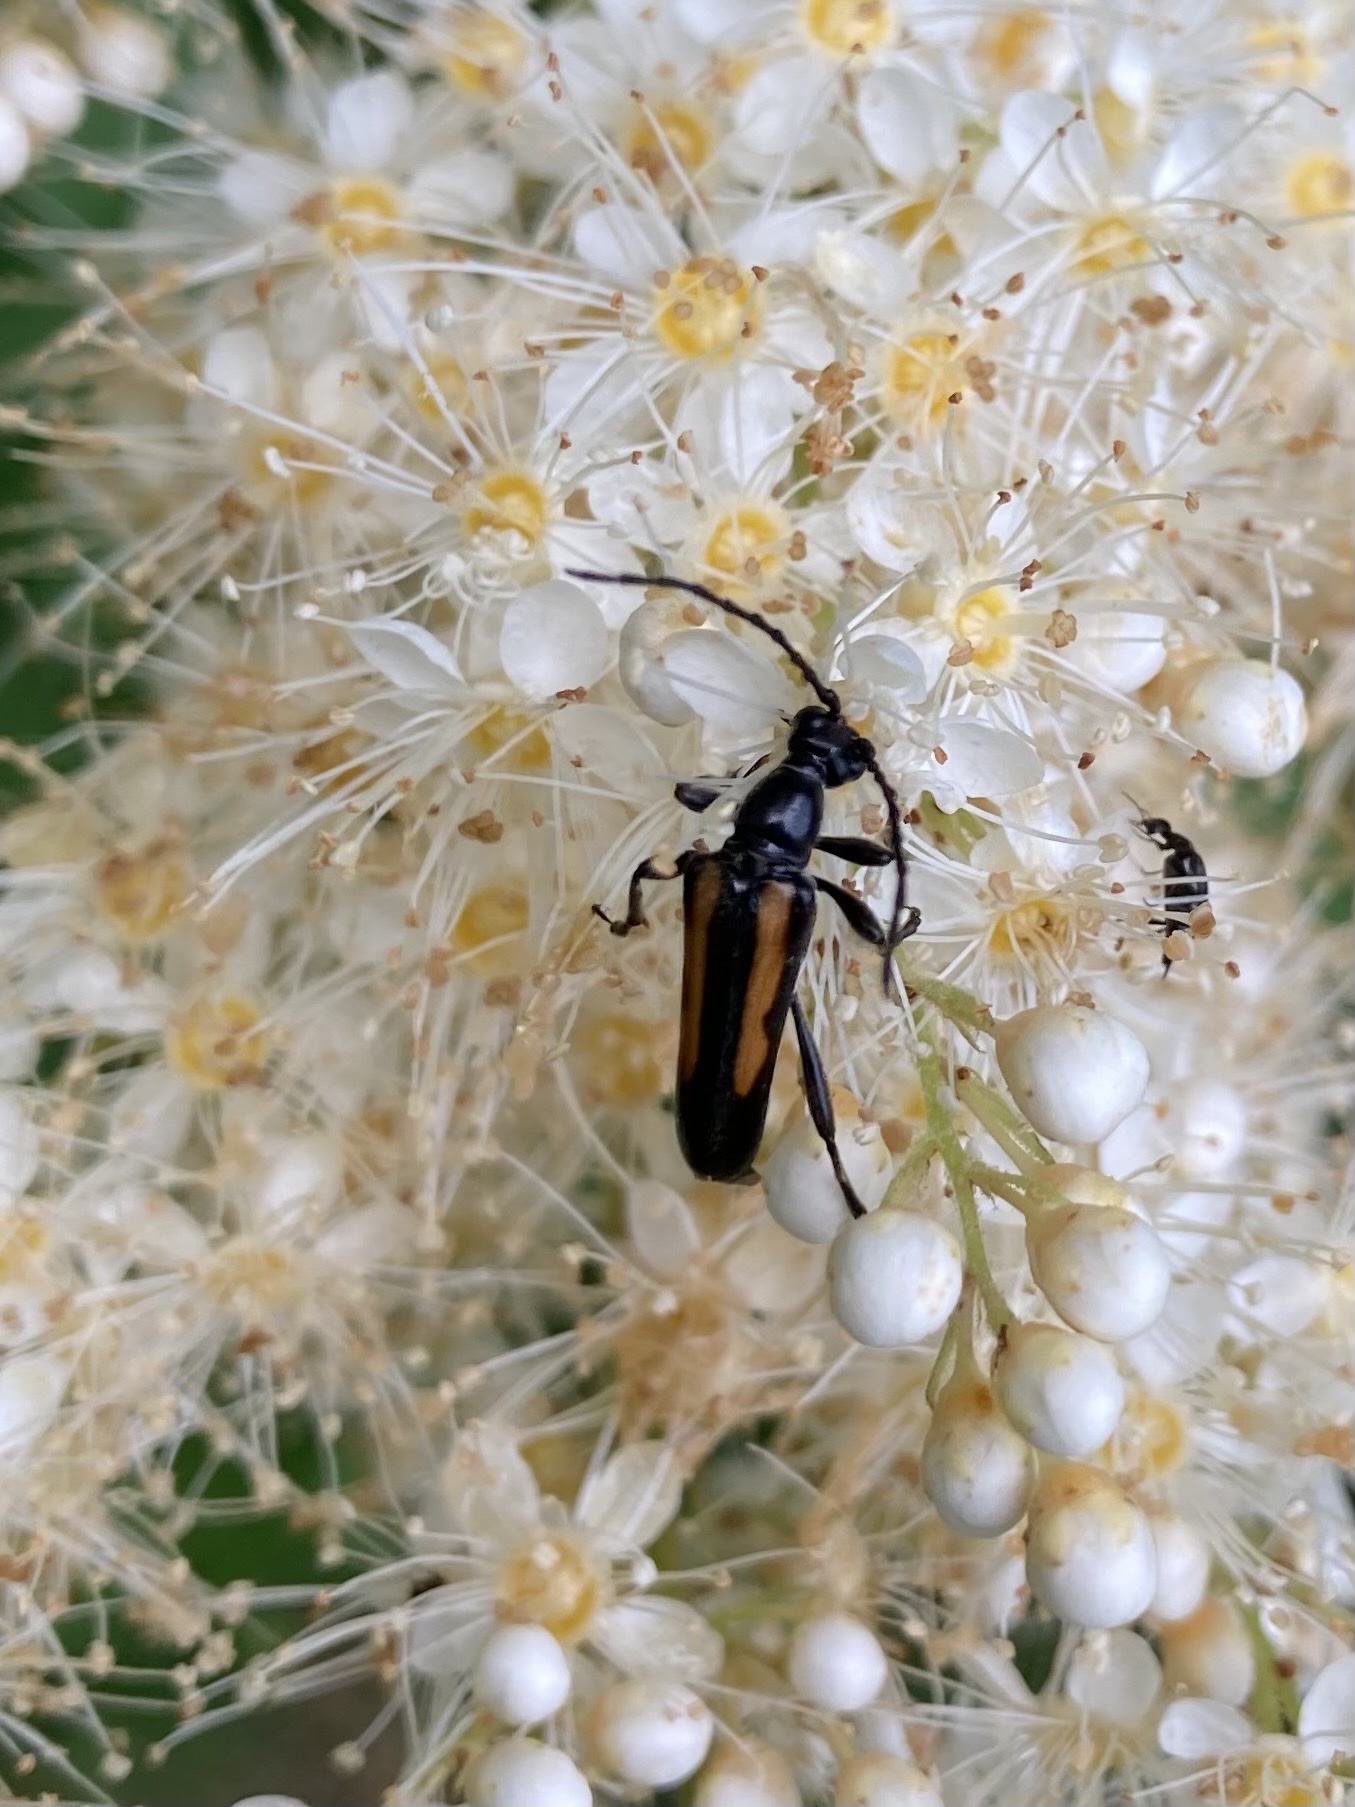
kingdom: Animalia
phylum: Arthropoda
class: Insecta
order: Coleoptera
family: Cerambycidae
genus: Strangalepta
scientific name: Strangalepta abbreviata
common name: Strangalepta flower longhorn beetle
